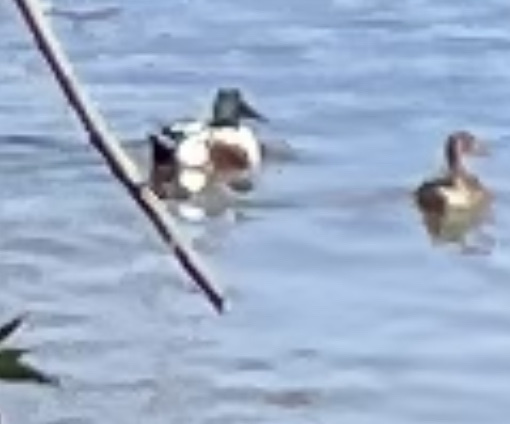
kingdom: Animalia
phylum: Chordata
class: Aves
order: Anseriformes
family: Anatidae
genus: Spatula
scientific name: Spatula clypeata
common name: Northern shoveler
